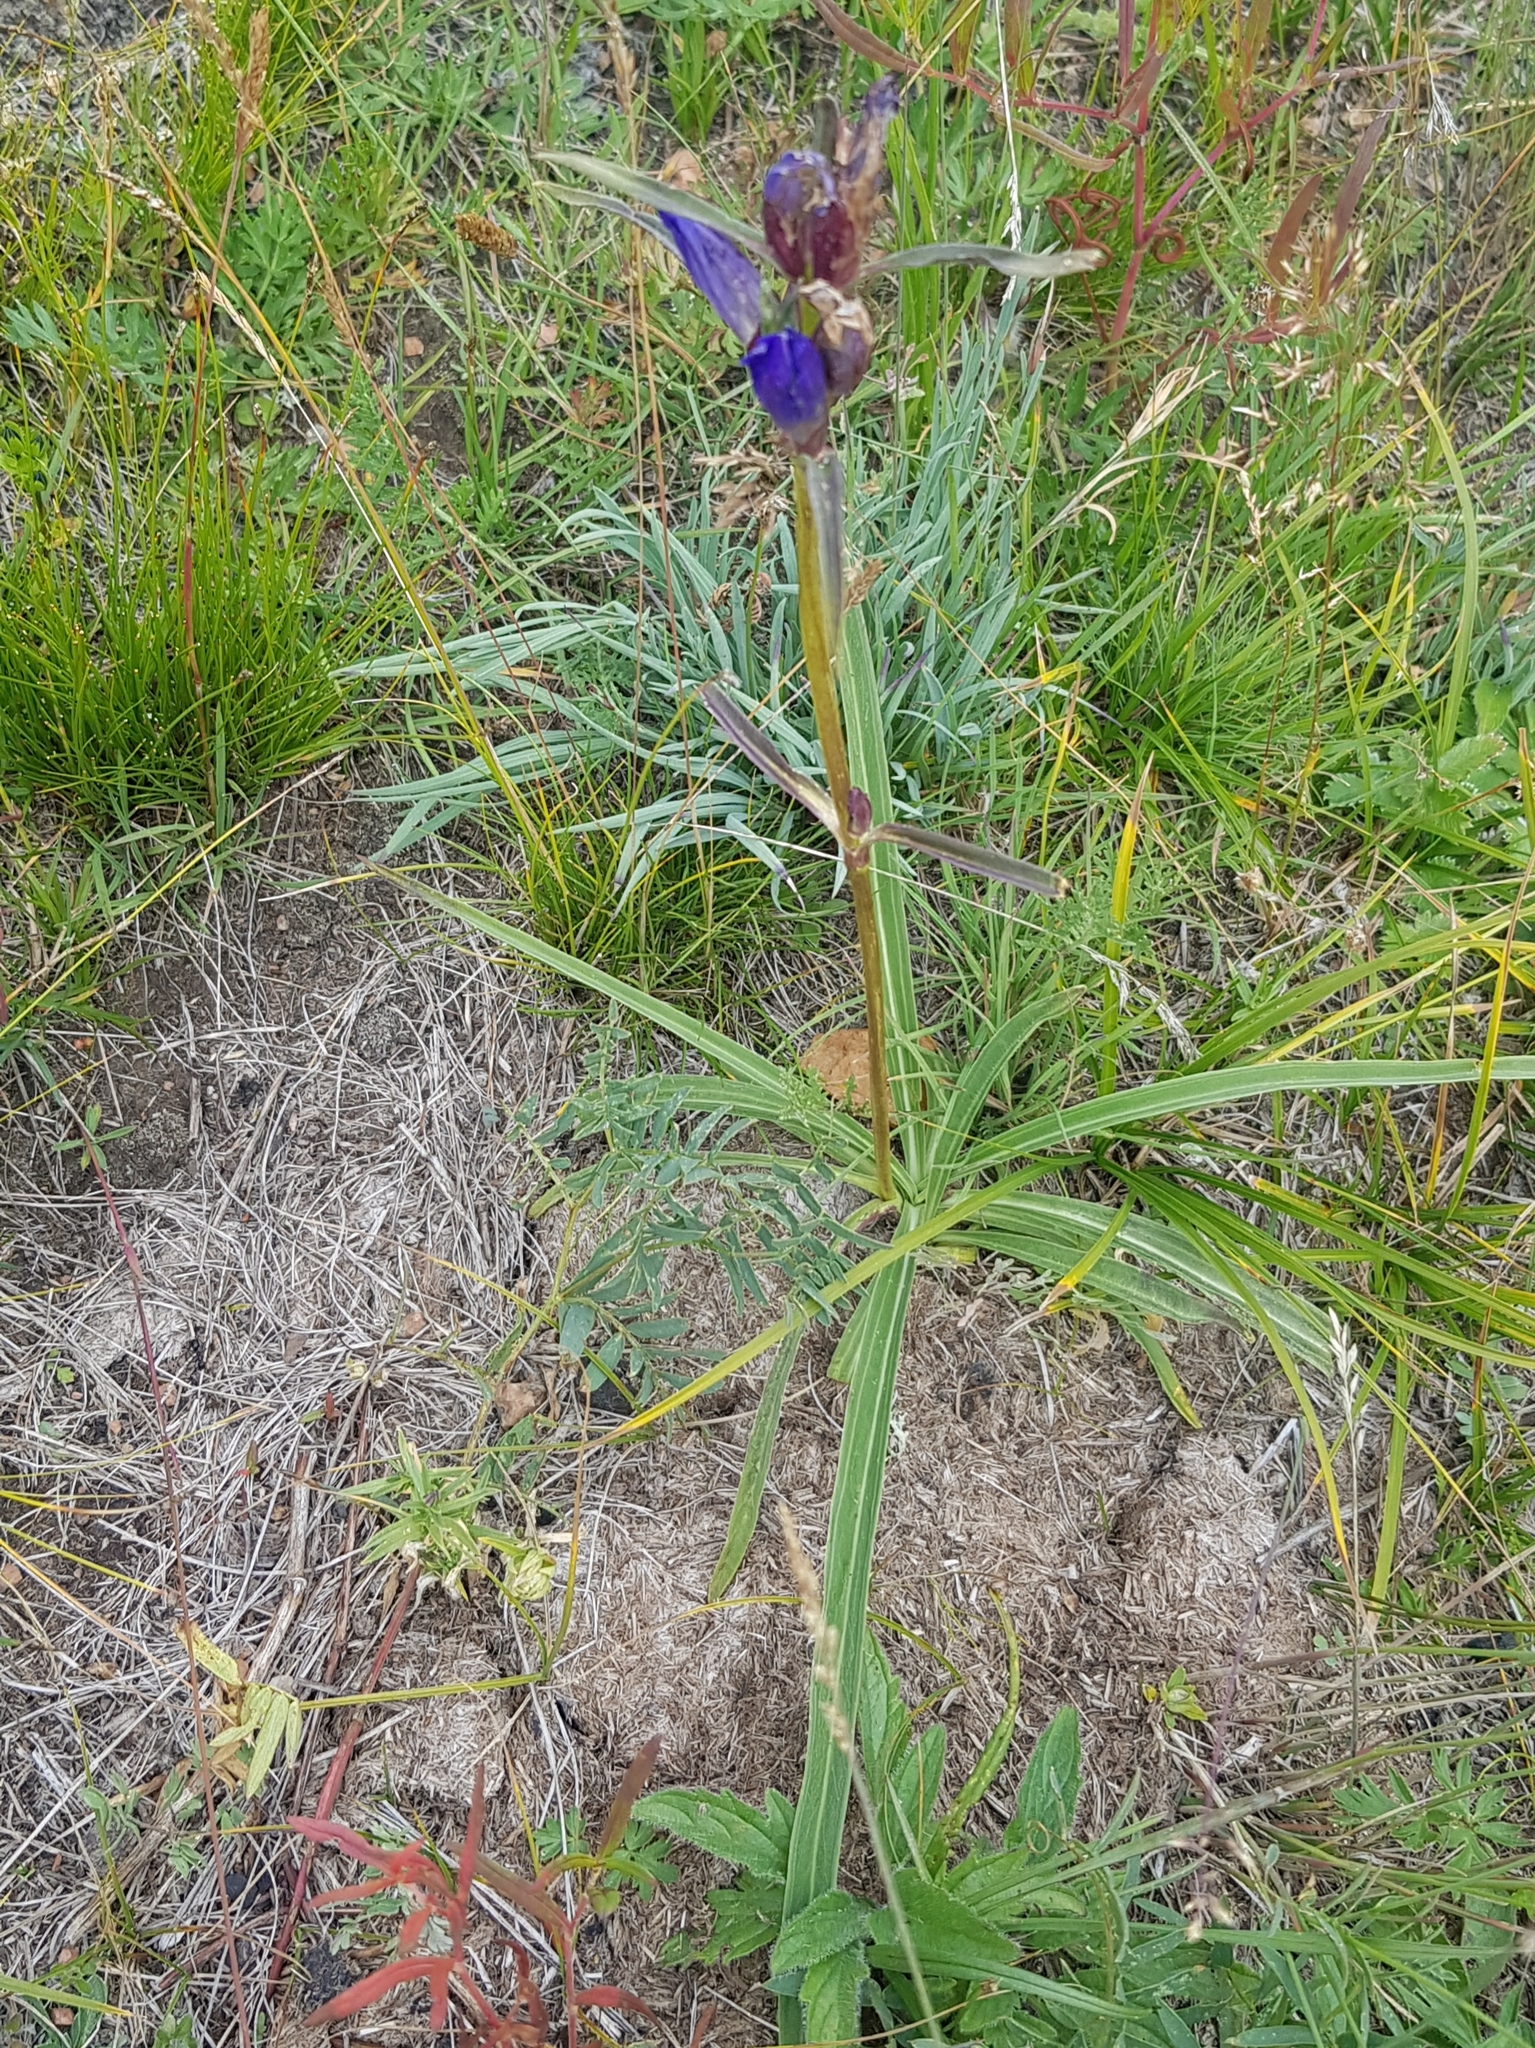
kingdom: Plantae
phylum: Tracheophyta
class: Magnoliopsida
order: Gentianales
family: Gentianaceae
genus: Gentiana
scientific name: Gentiana decumbens
